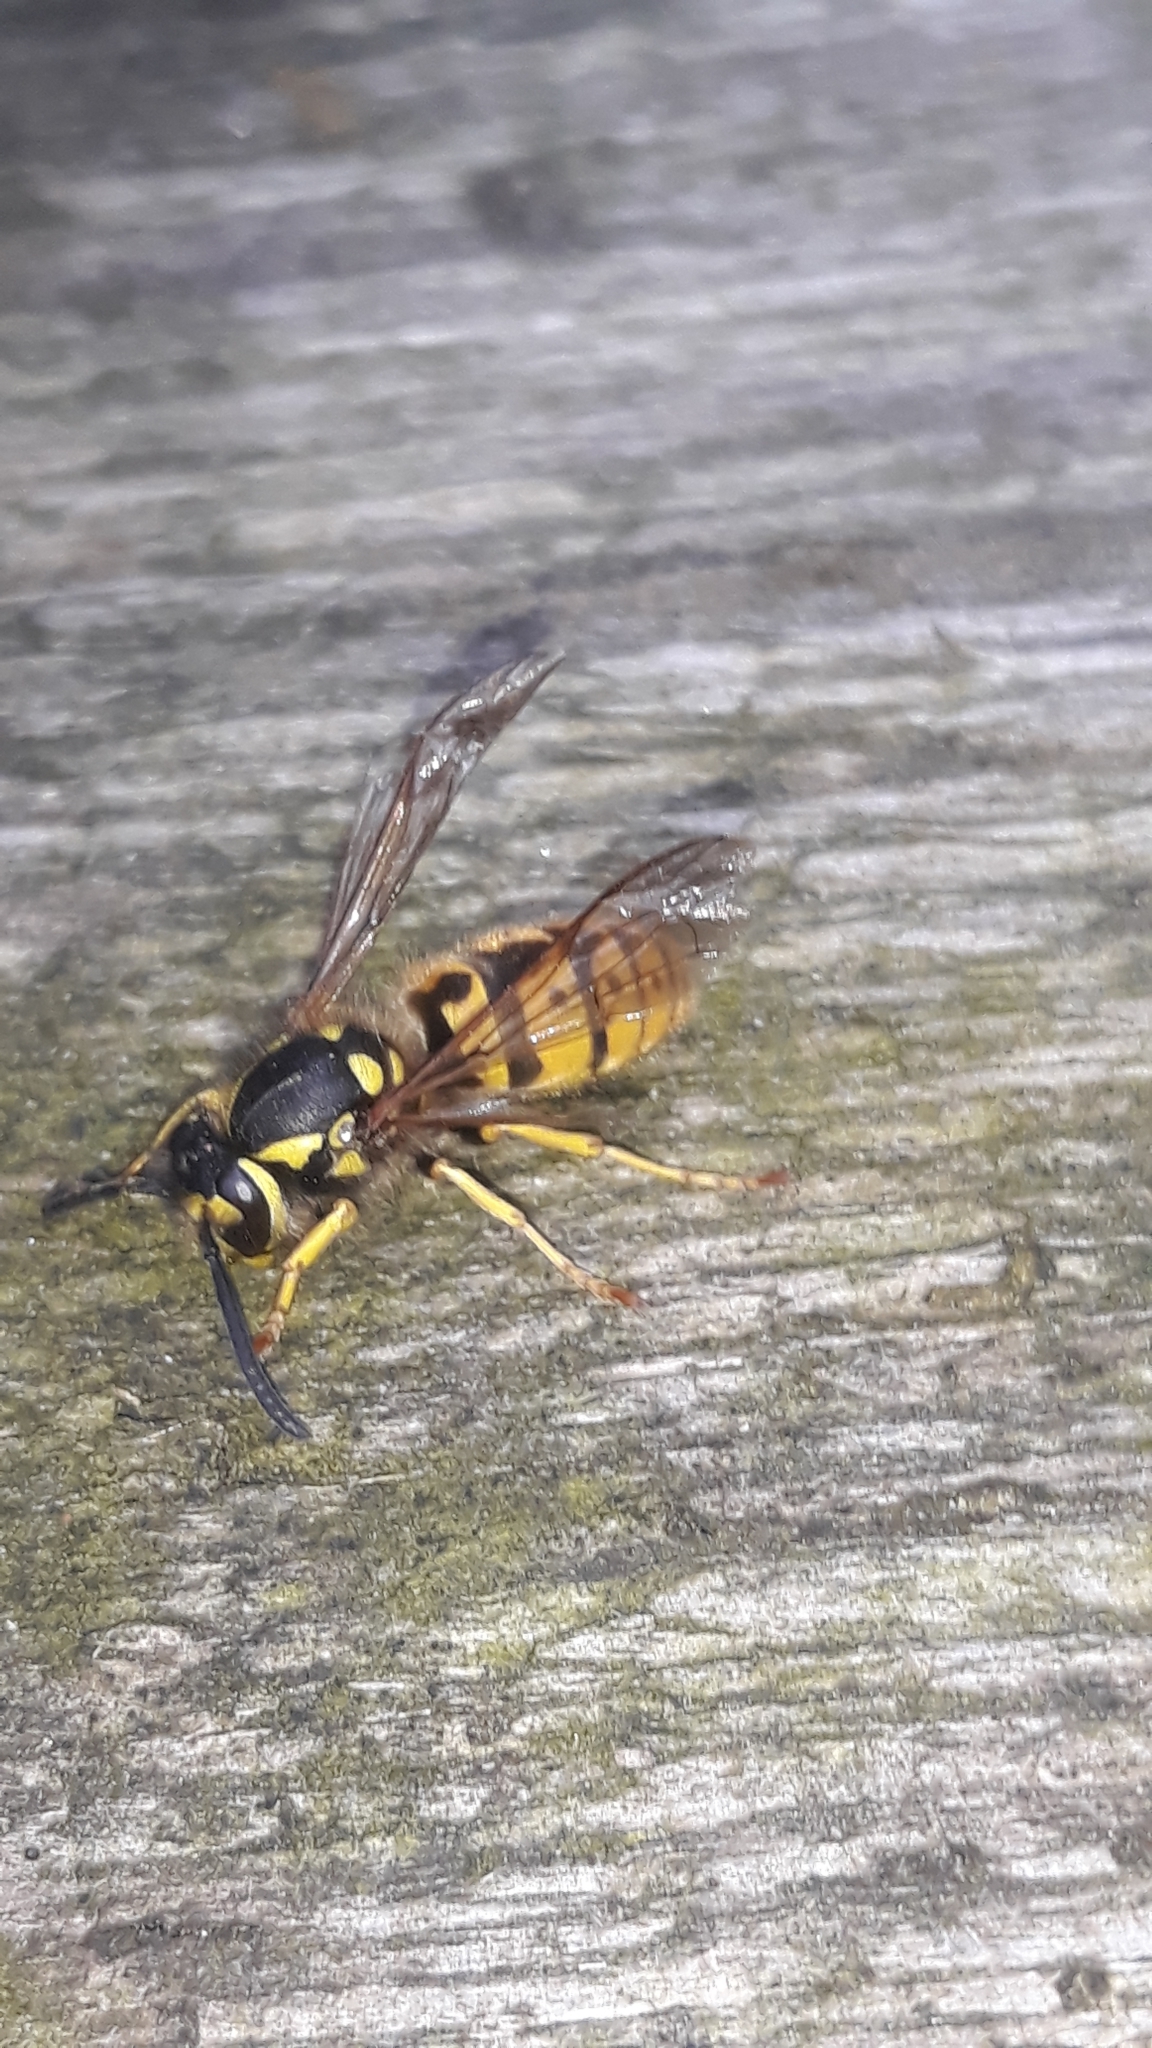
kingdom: Animalia
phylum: Arthropoda
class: Insecta
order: Hymenoptera
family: Vespidae
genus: Vespula
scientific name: Vespula germanica
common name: German wasp
